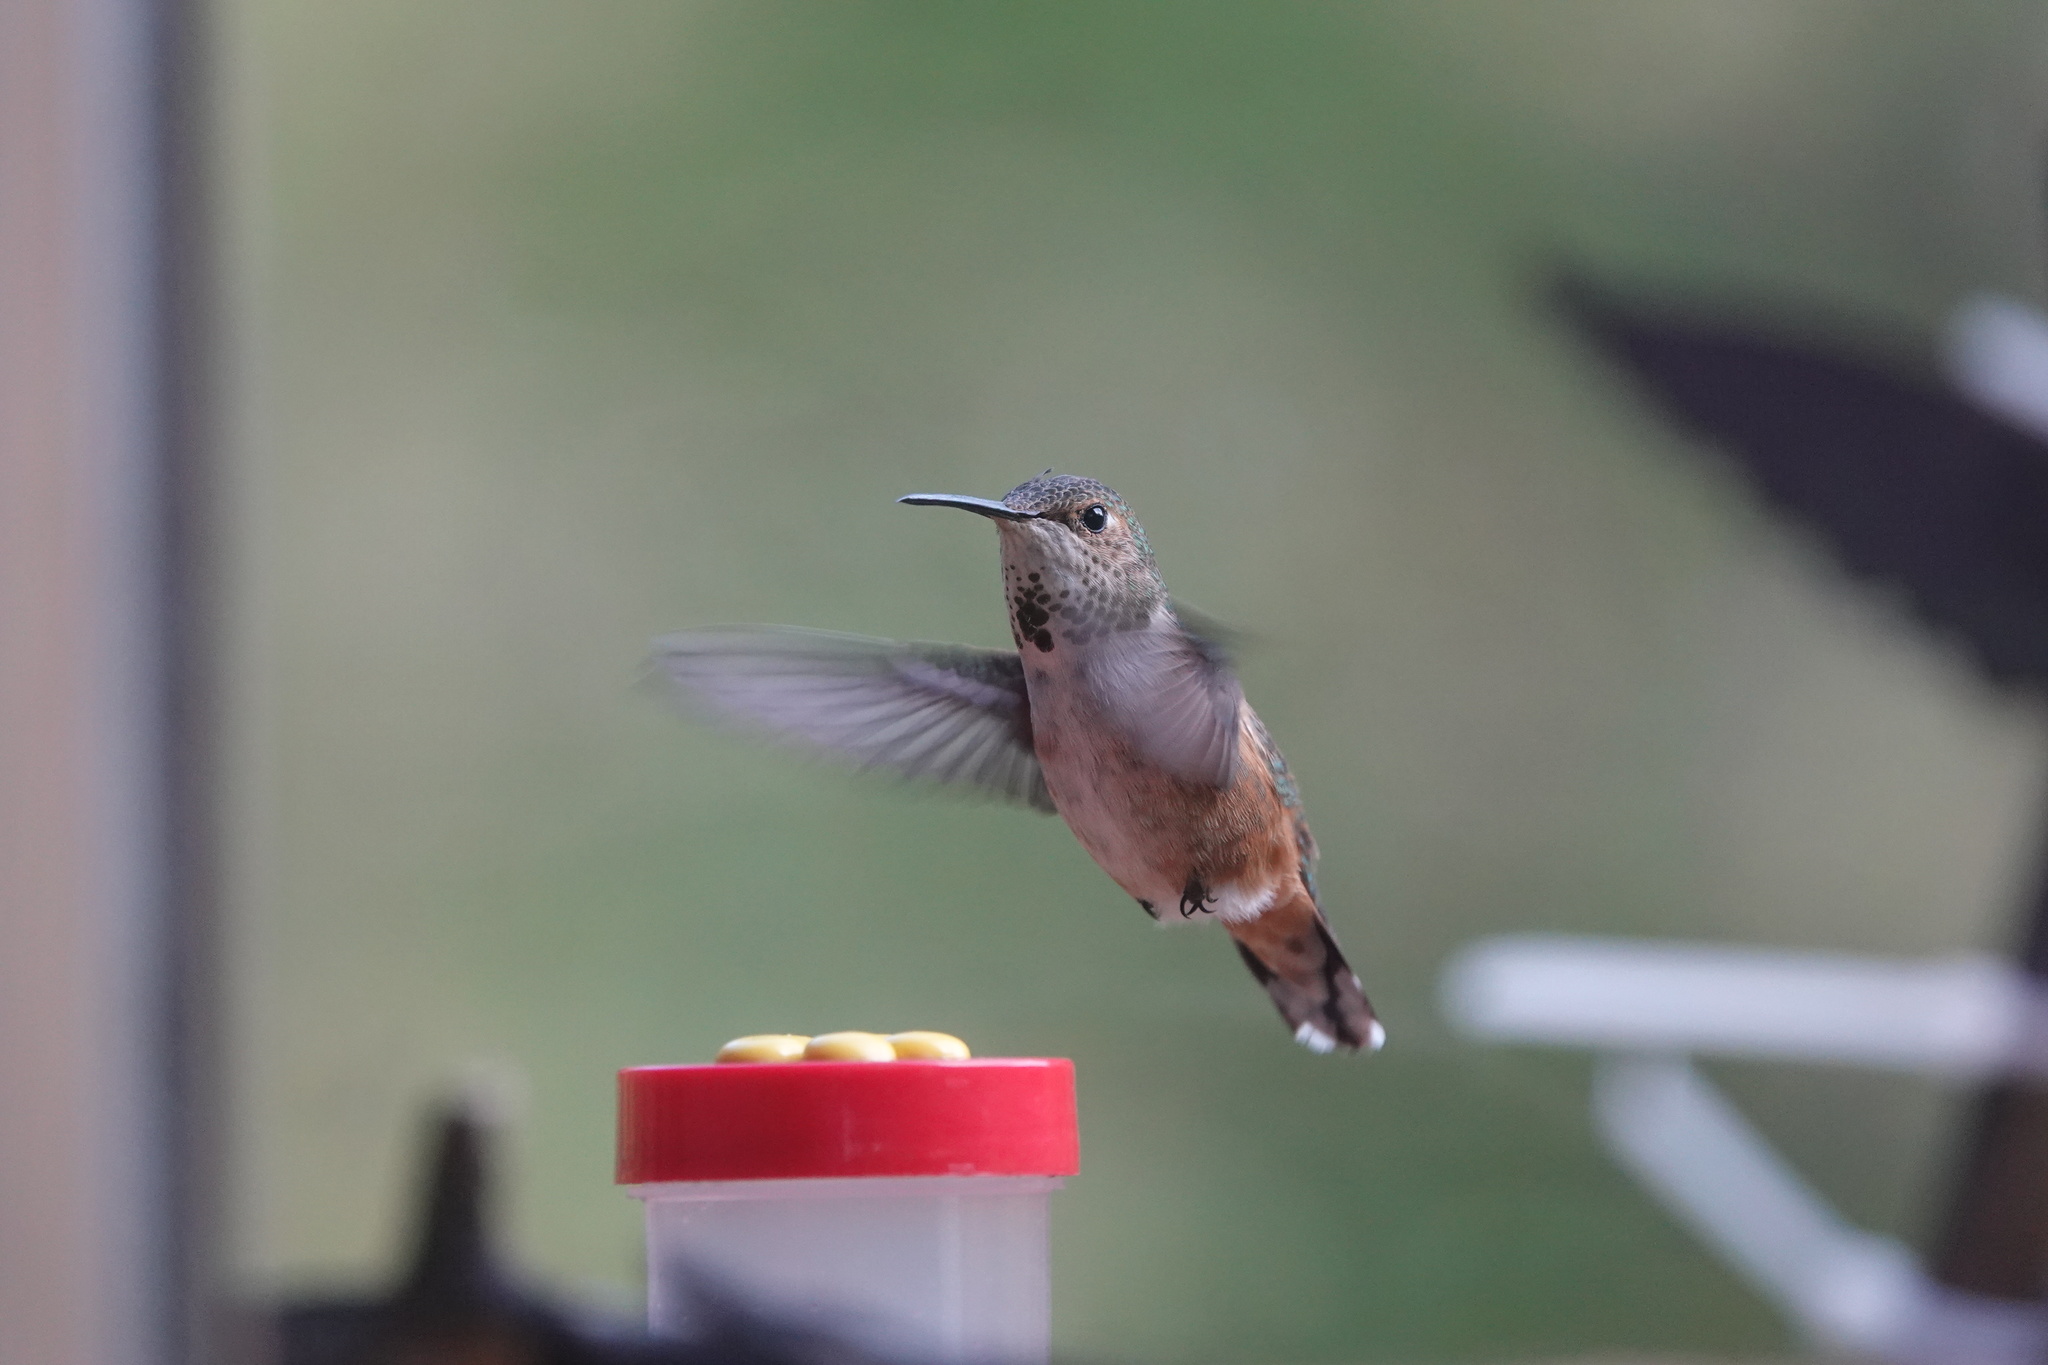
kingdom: Animalia
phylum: Chordata
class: Aves
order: Apodiformes
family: Trochilidae
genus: Selasphorus
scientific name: Selasphorus rufus
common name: Rufous hummingbird
